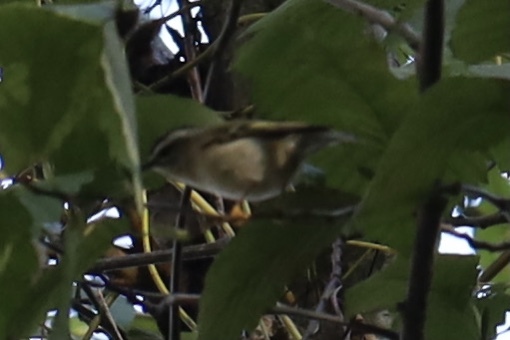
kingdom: Animalia
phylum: Chordata
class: Aves
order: Passeriformes
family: Regulidae
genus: Regulus
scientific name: Regulus satrapa
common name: Golden-crowned kinglet
